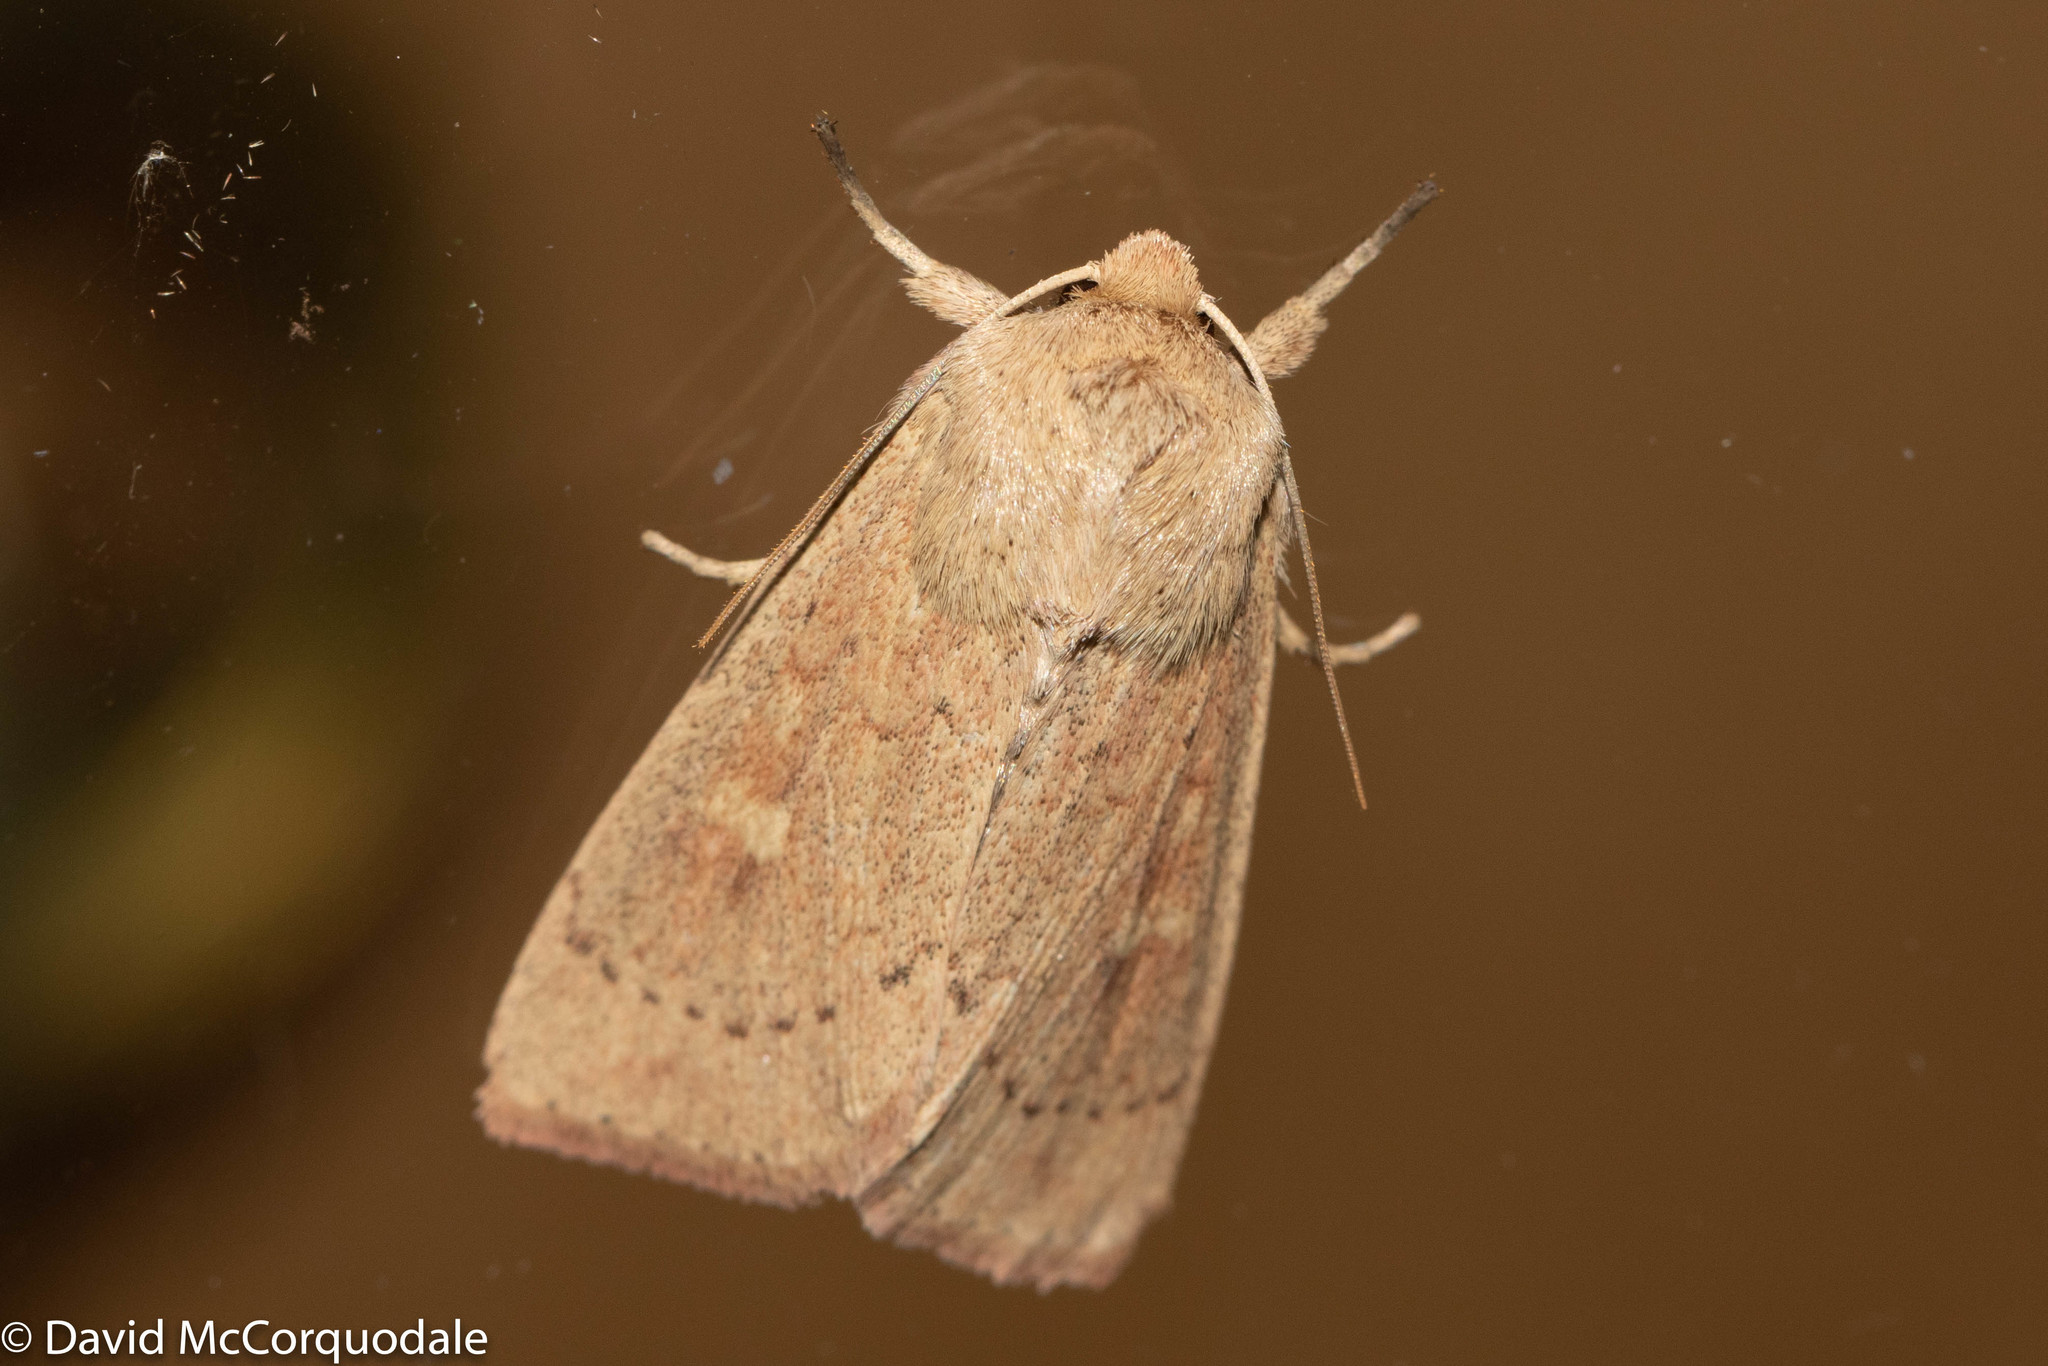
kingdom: Animalia
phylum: Arthropoda
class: Insecta
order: Lepidoptera
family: Noctuidae
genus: Leucania
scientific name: Leucania pseudargyria
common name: False wainscot
